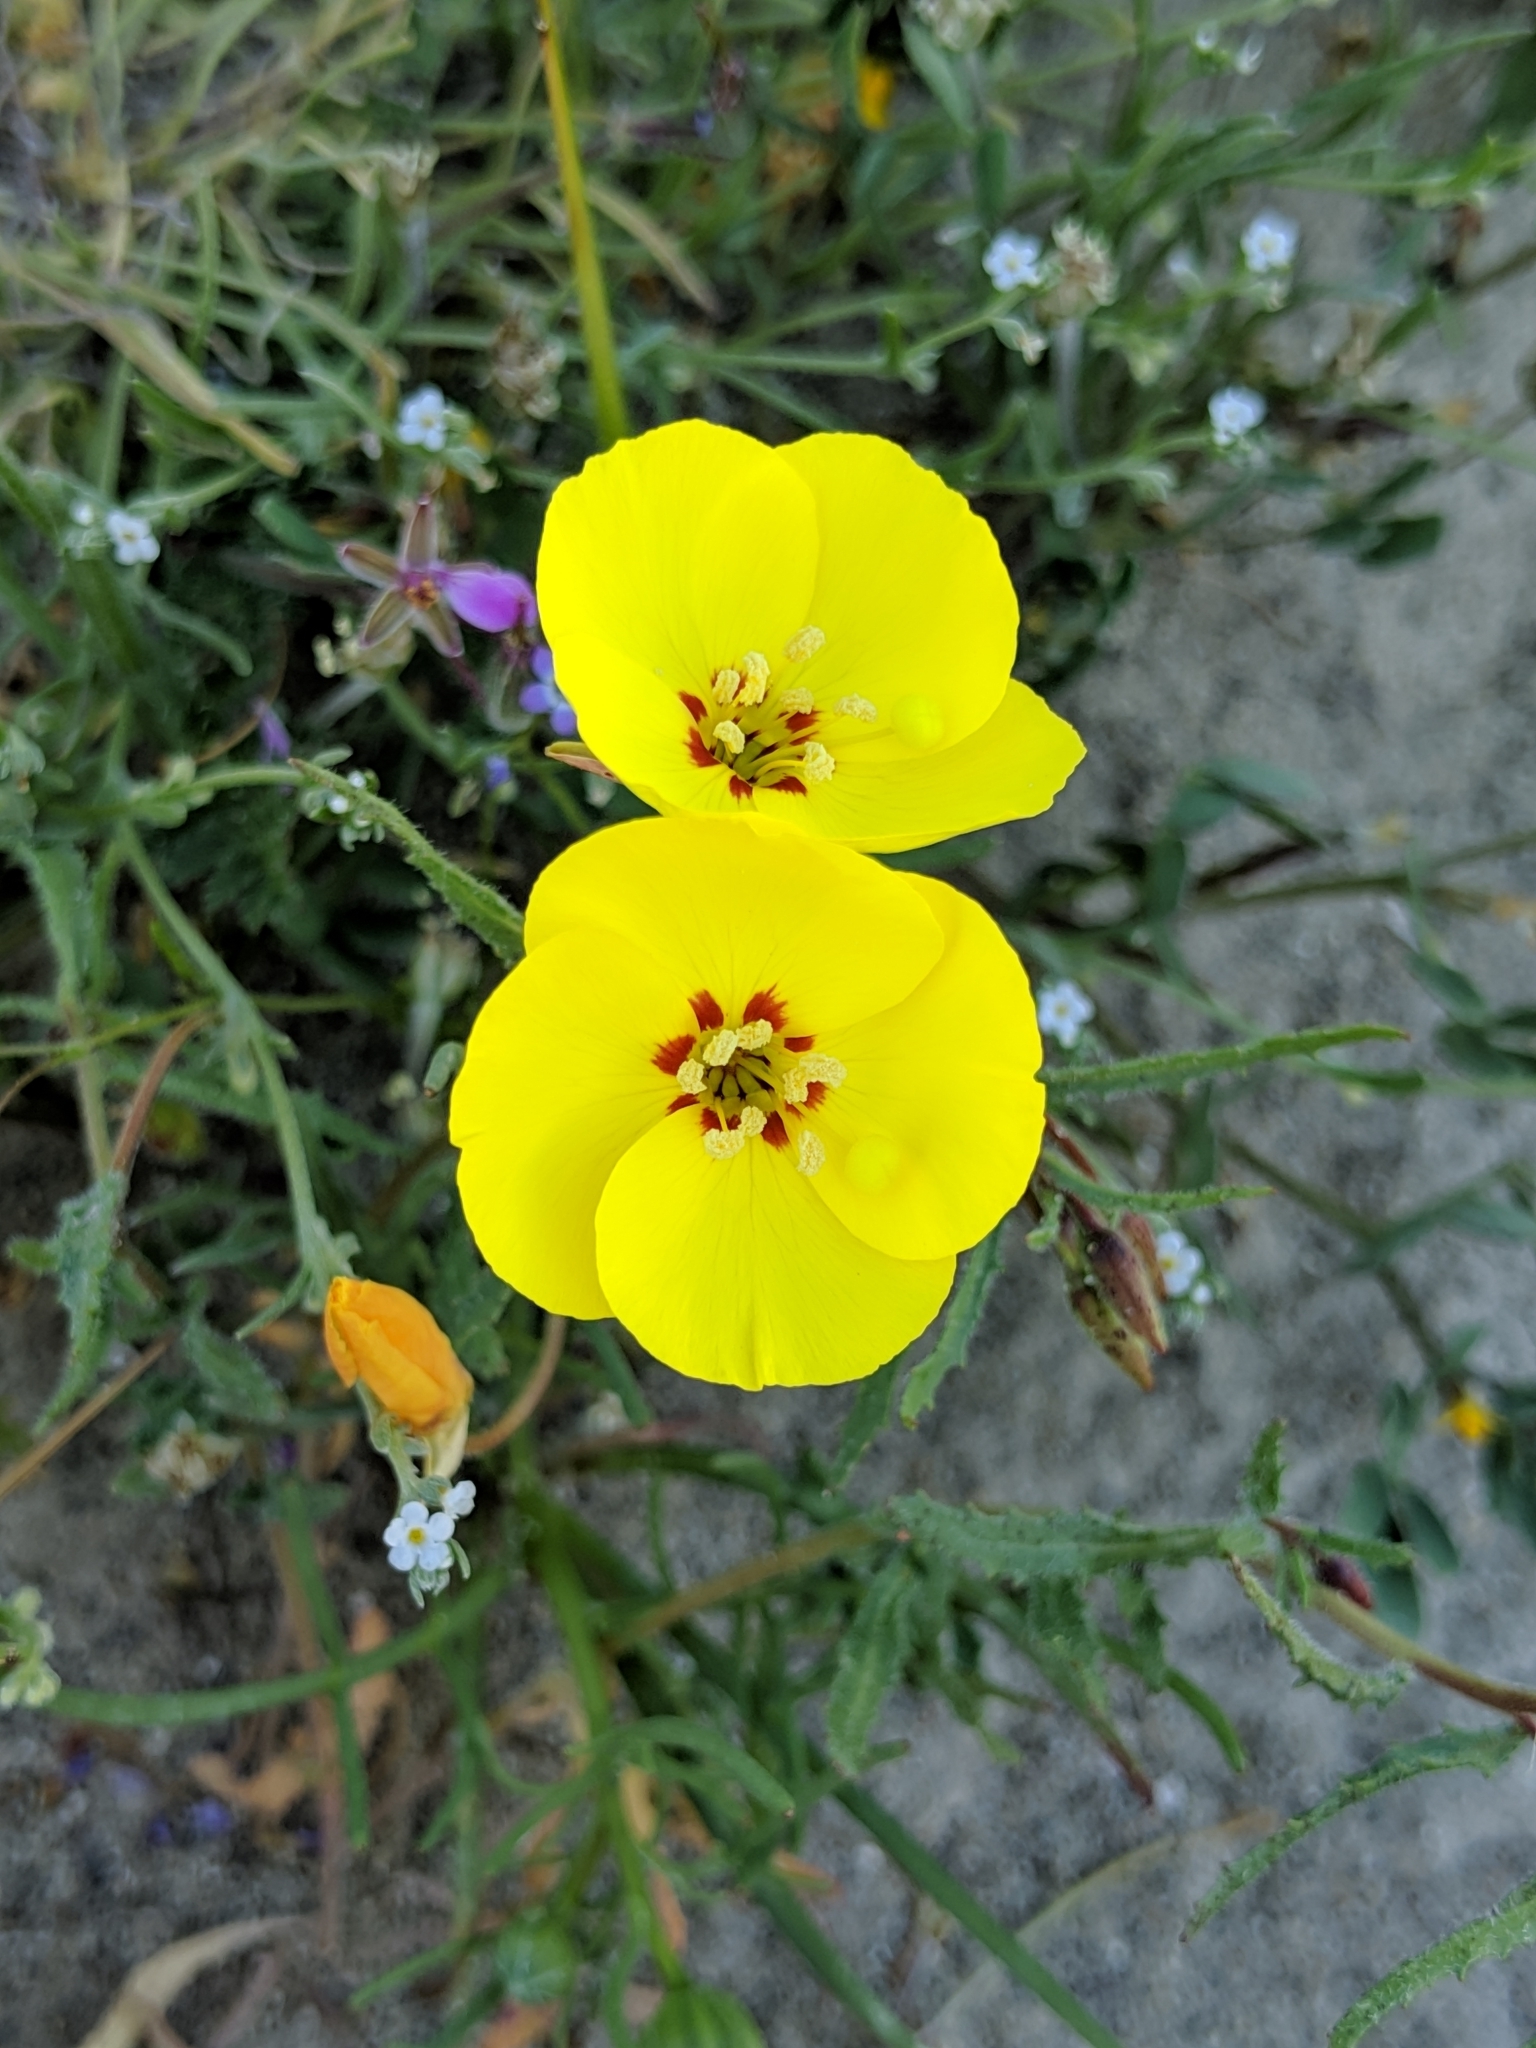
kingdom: Plantae
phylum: Tracheophyta
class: Magnoliopsida
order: Myrtales
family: Onagraceae
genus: Camissonia
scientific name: Camissonia campestris
